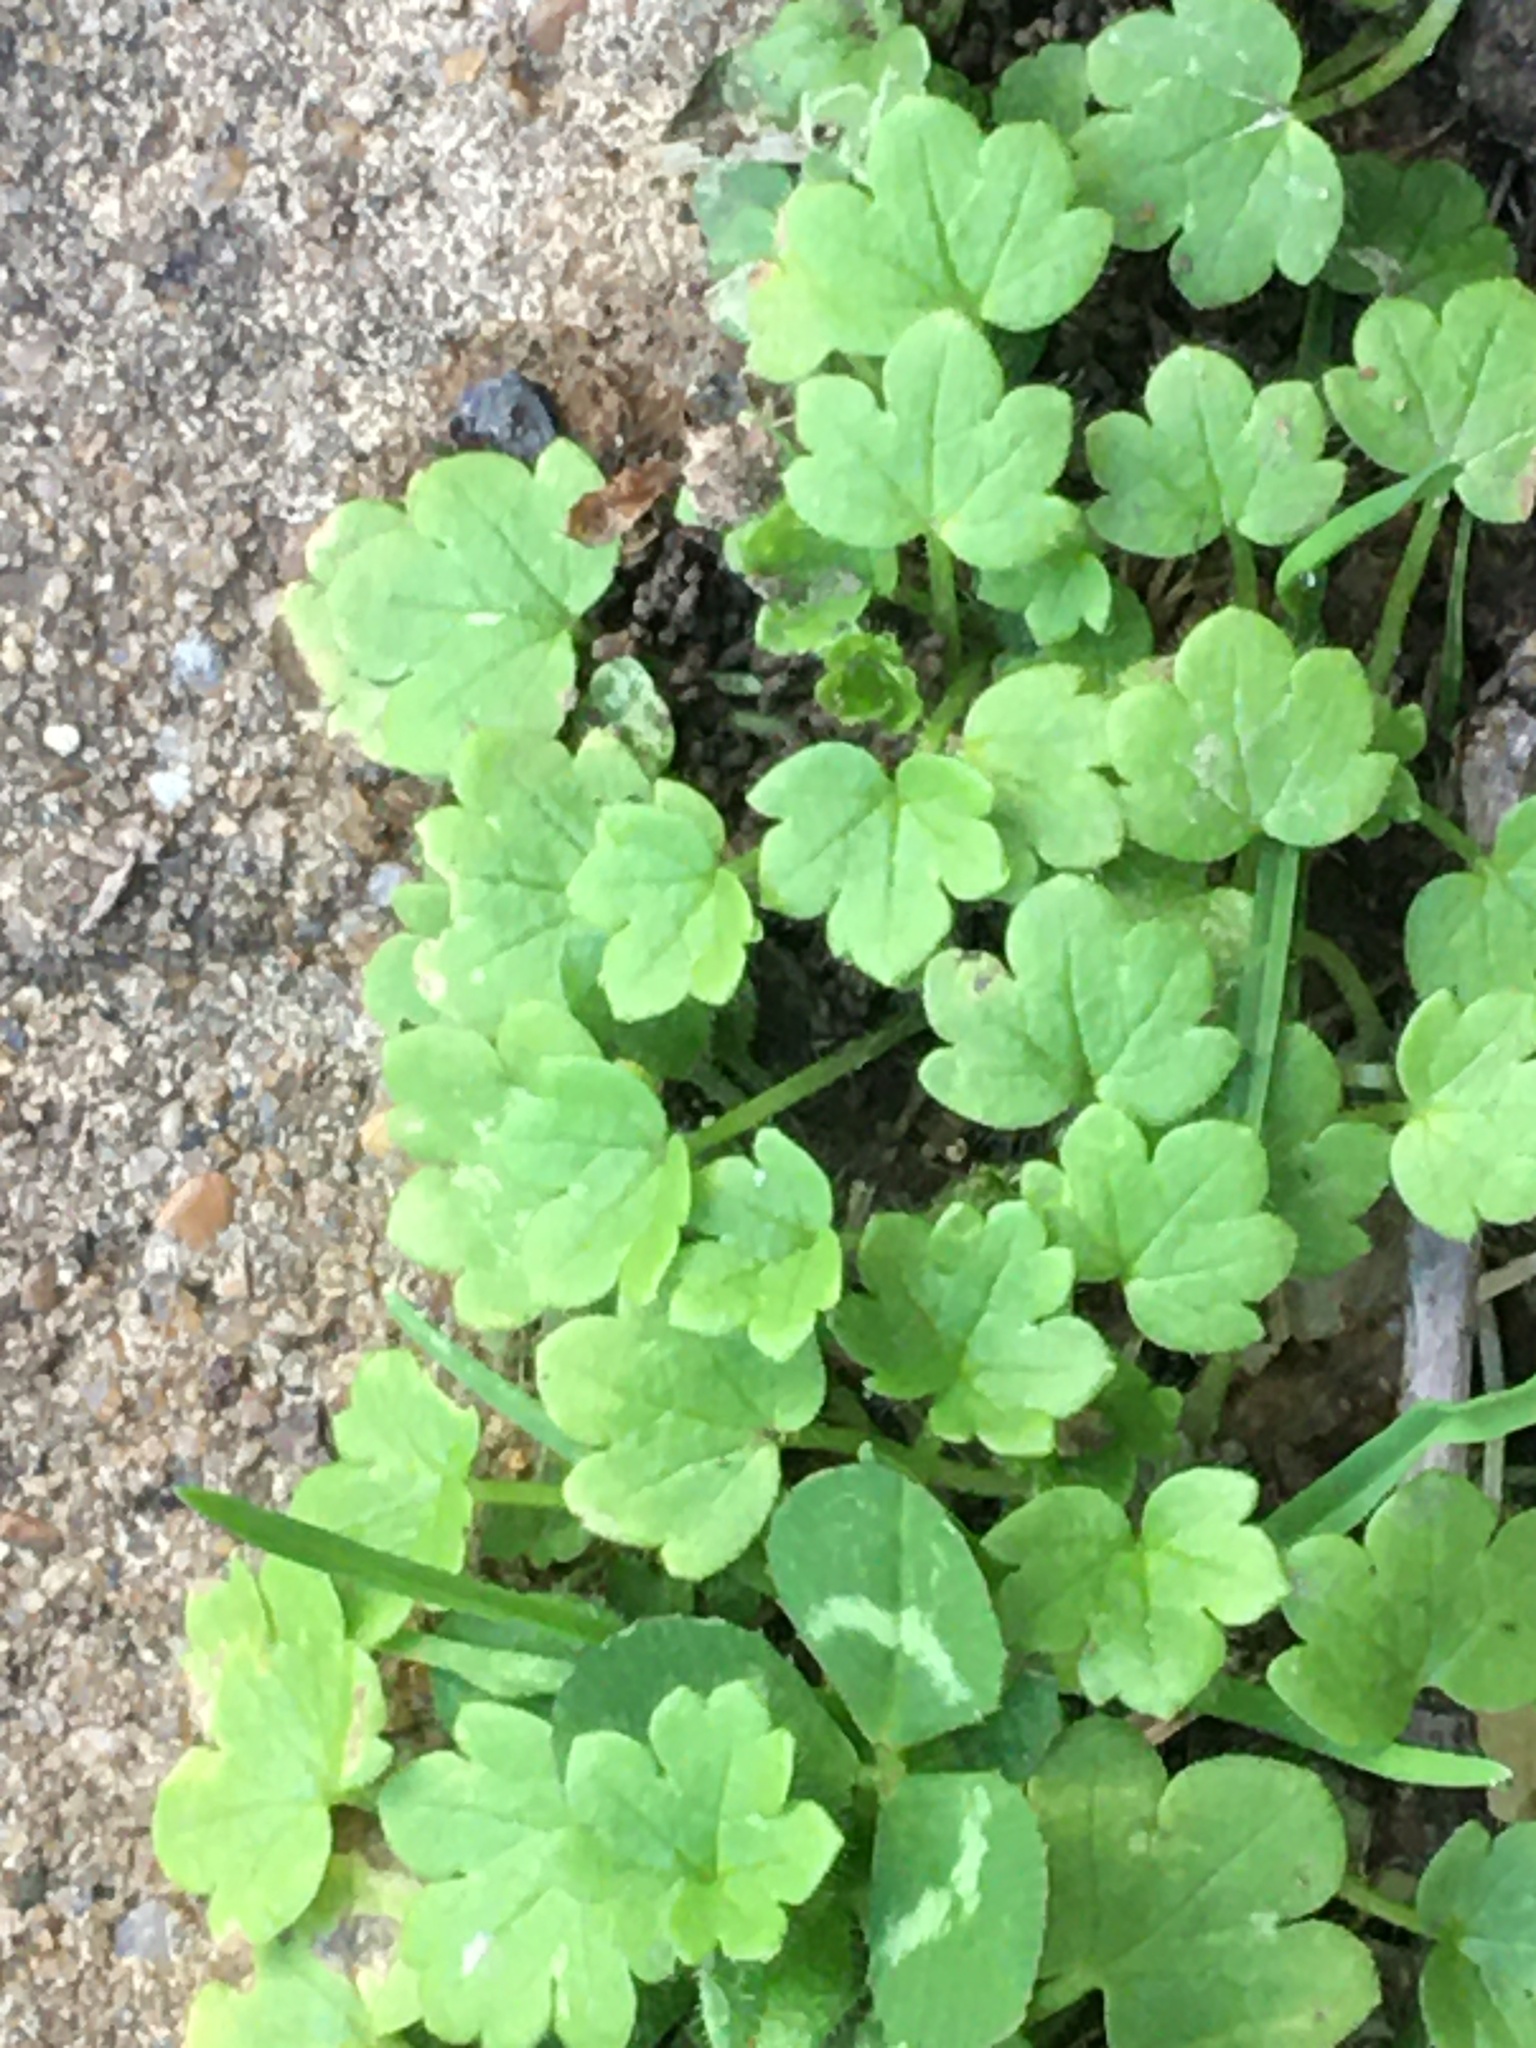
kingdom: Plantae
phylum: Tracheophyta
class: Magnoliopsida
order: Apiales
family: Apiaceae
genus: Bowlesia
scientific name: Bowlesia incana
